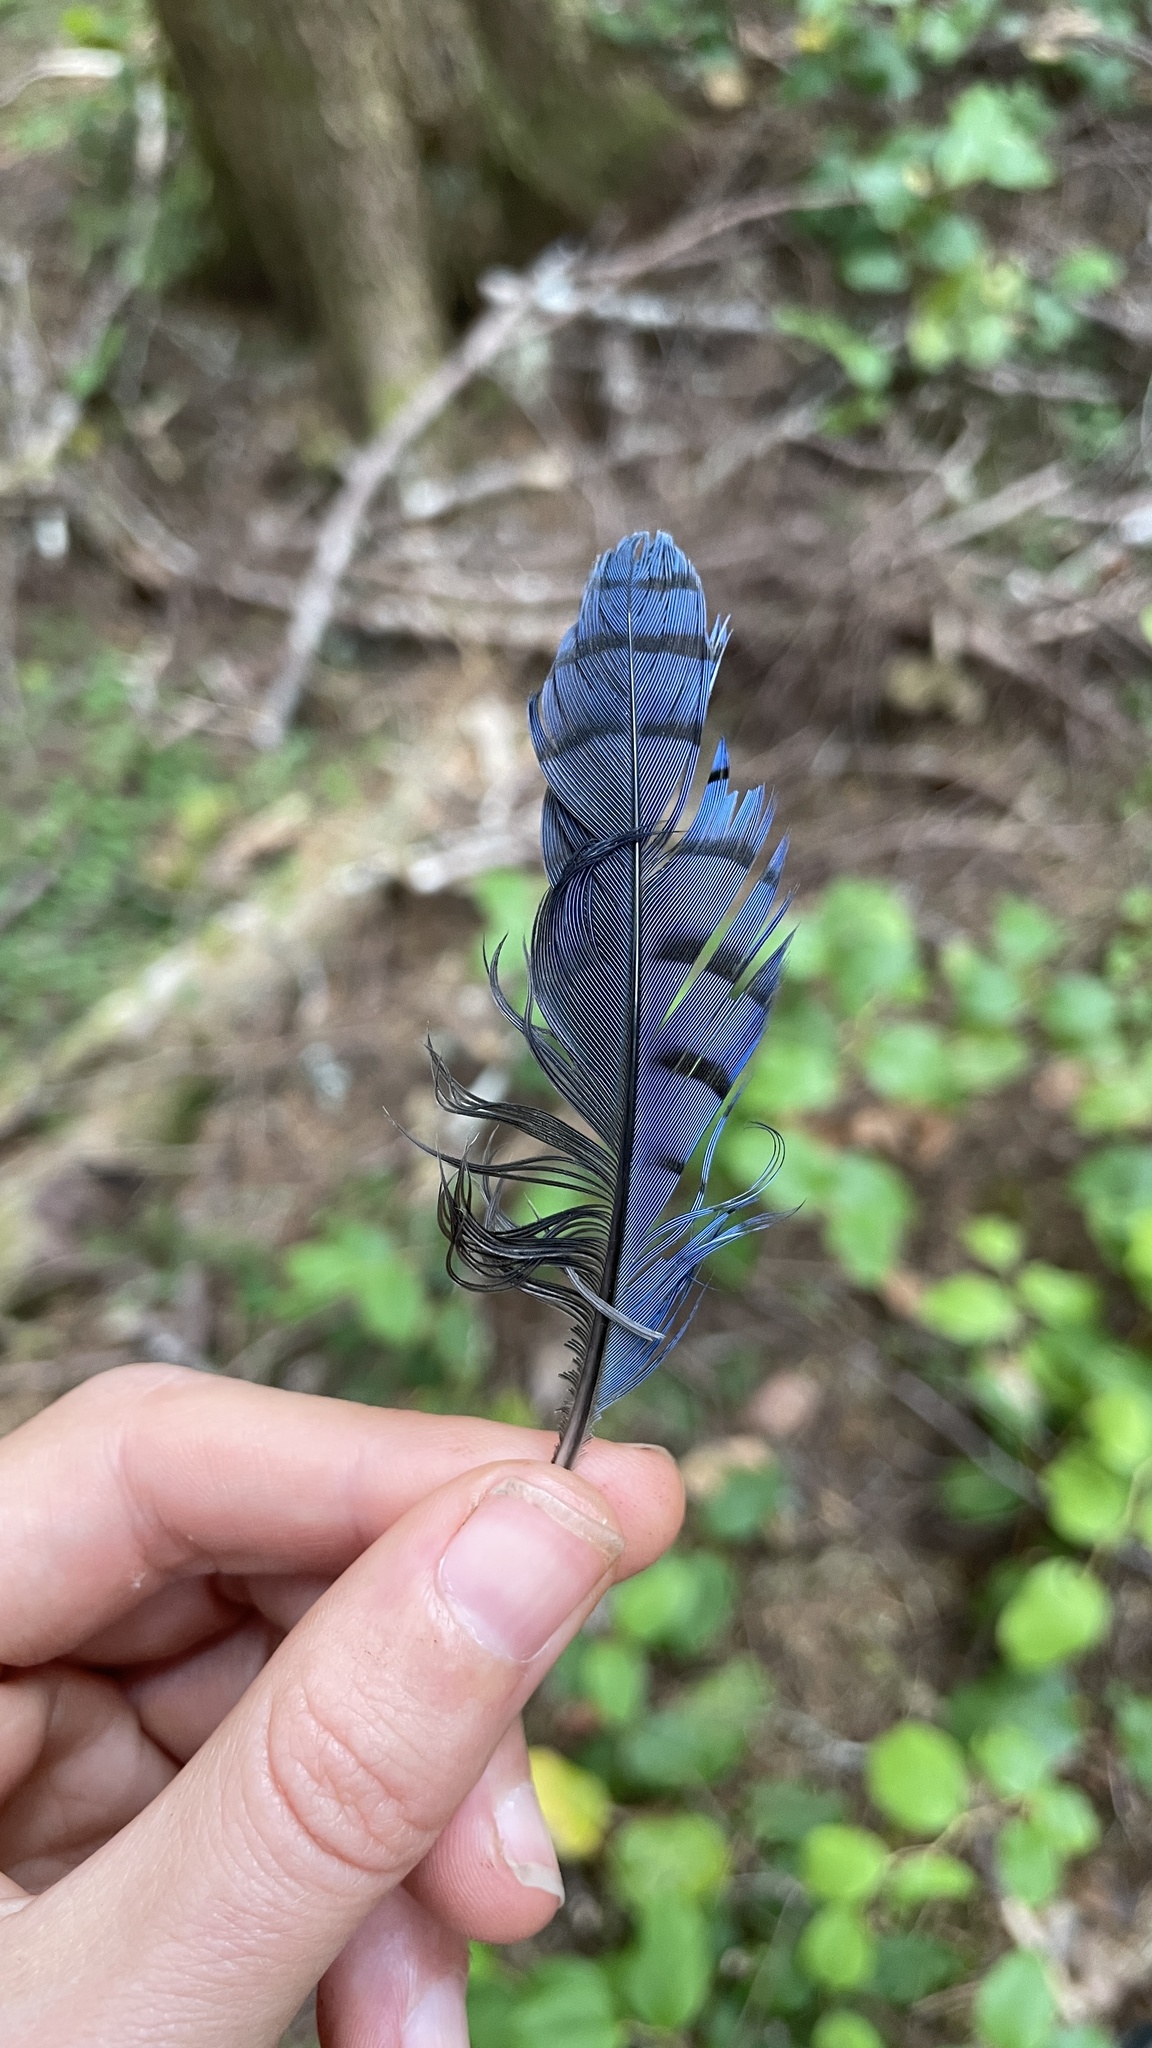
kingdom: Animalia
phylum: Chordata
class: Aves
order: Passeriformes
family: Corvidae
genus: Cyanocitta
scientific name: Cyanocitta stelleri
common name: Steller's jay
